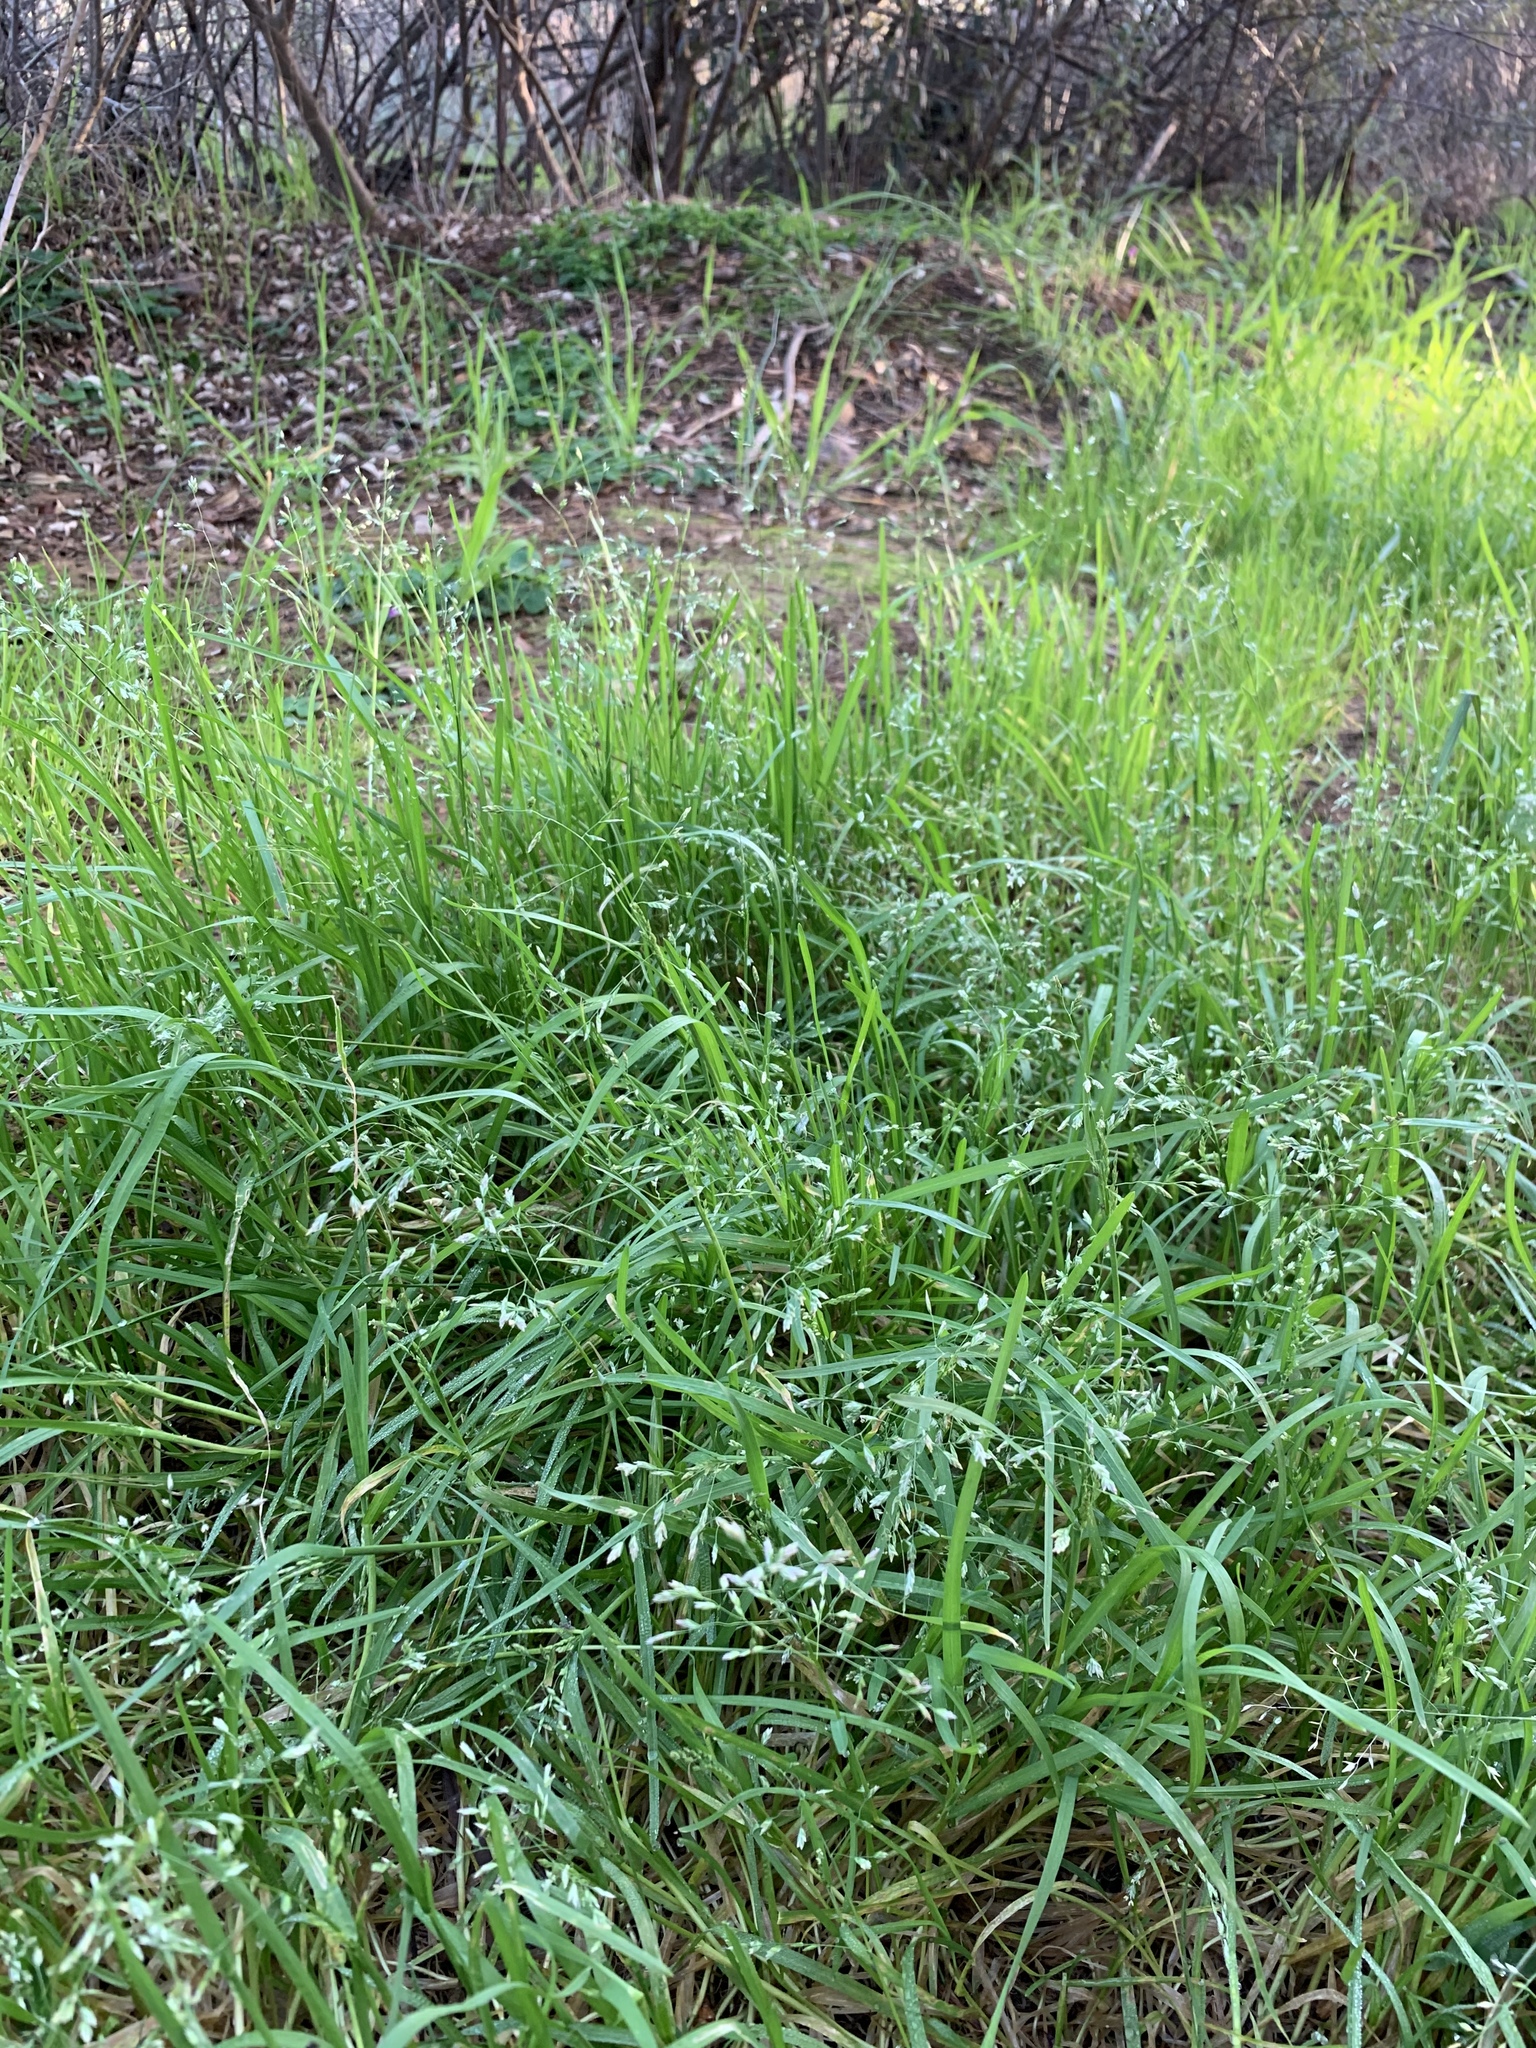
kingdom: Plantae
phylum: Tracheophyta
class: Liliopsida
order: Poales
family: Poaceae
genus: Poa
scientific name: Poa annua
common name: Annual bluegrass
